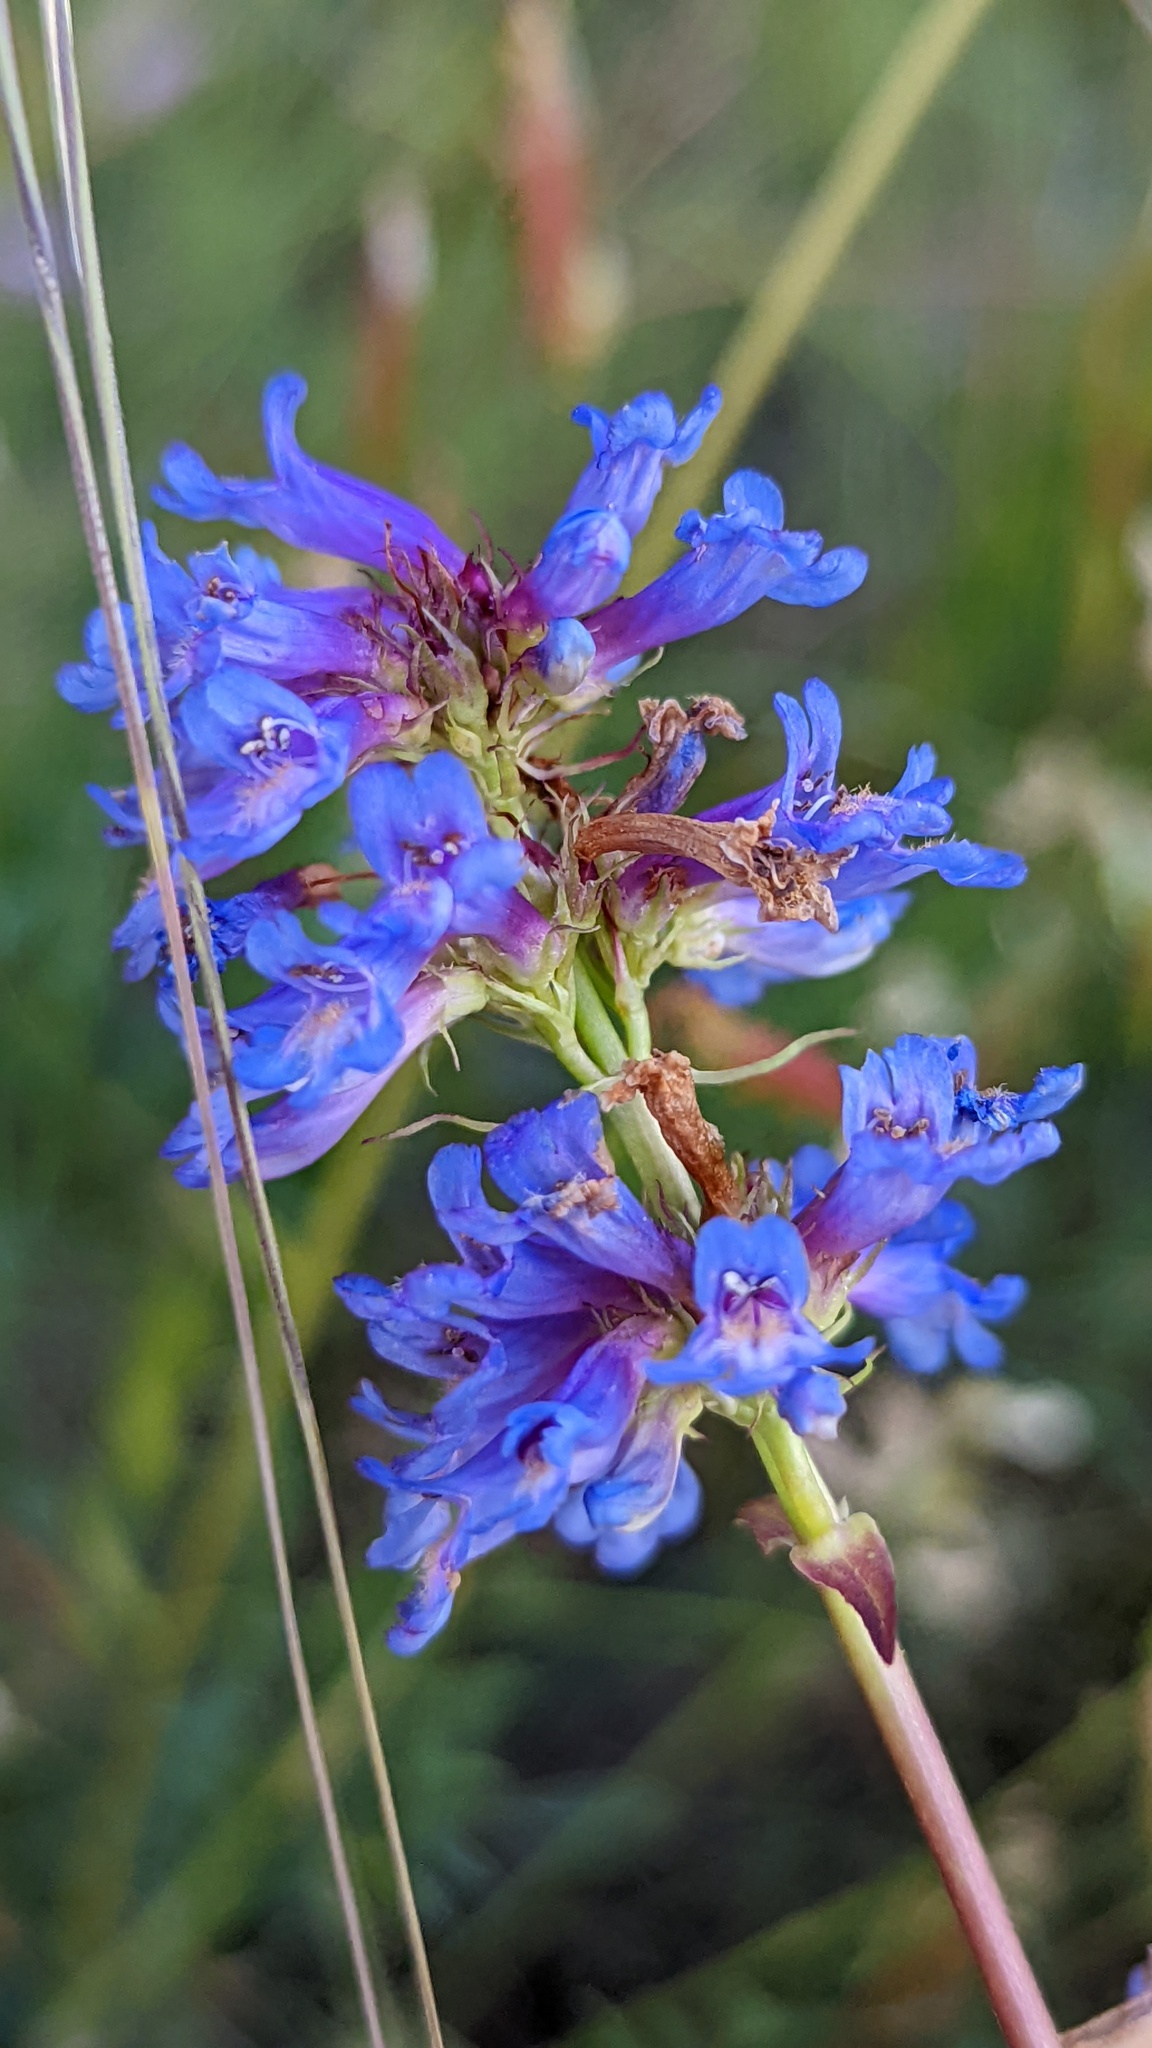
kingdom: Plantae
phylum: Tracheophyta
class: Magnoliopsida
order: Lamiales
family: Plantaginaceae
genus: Penstemon
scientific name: Penstemon procerus
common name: Small-flower penstemon
